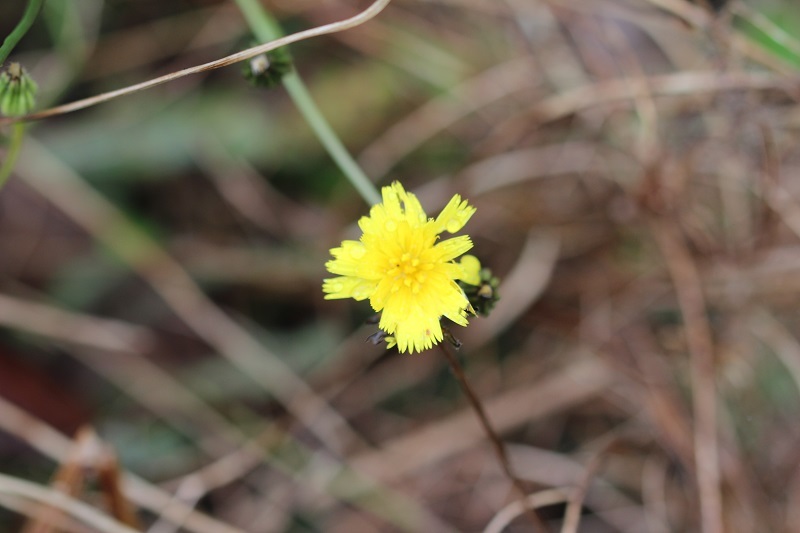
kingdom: Plantae
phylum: Tracheophyta
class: Magnoliopsida
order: Asterales
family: Asteraceae
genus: Hypochaeris
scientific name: Hypochaeris radicata
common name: Flatweed
